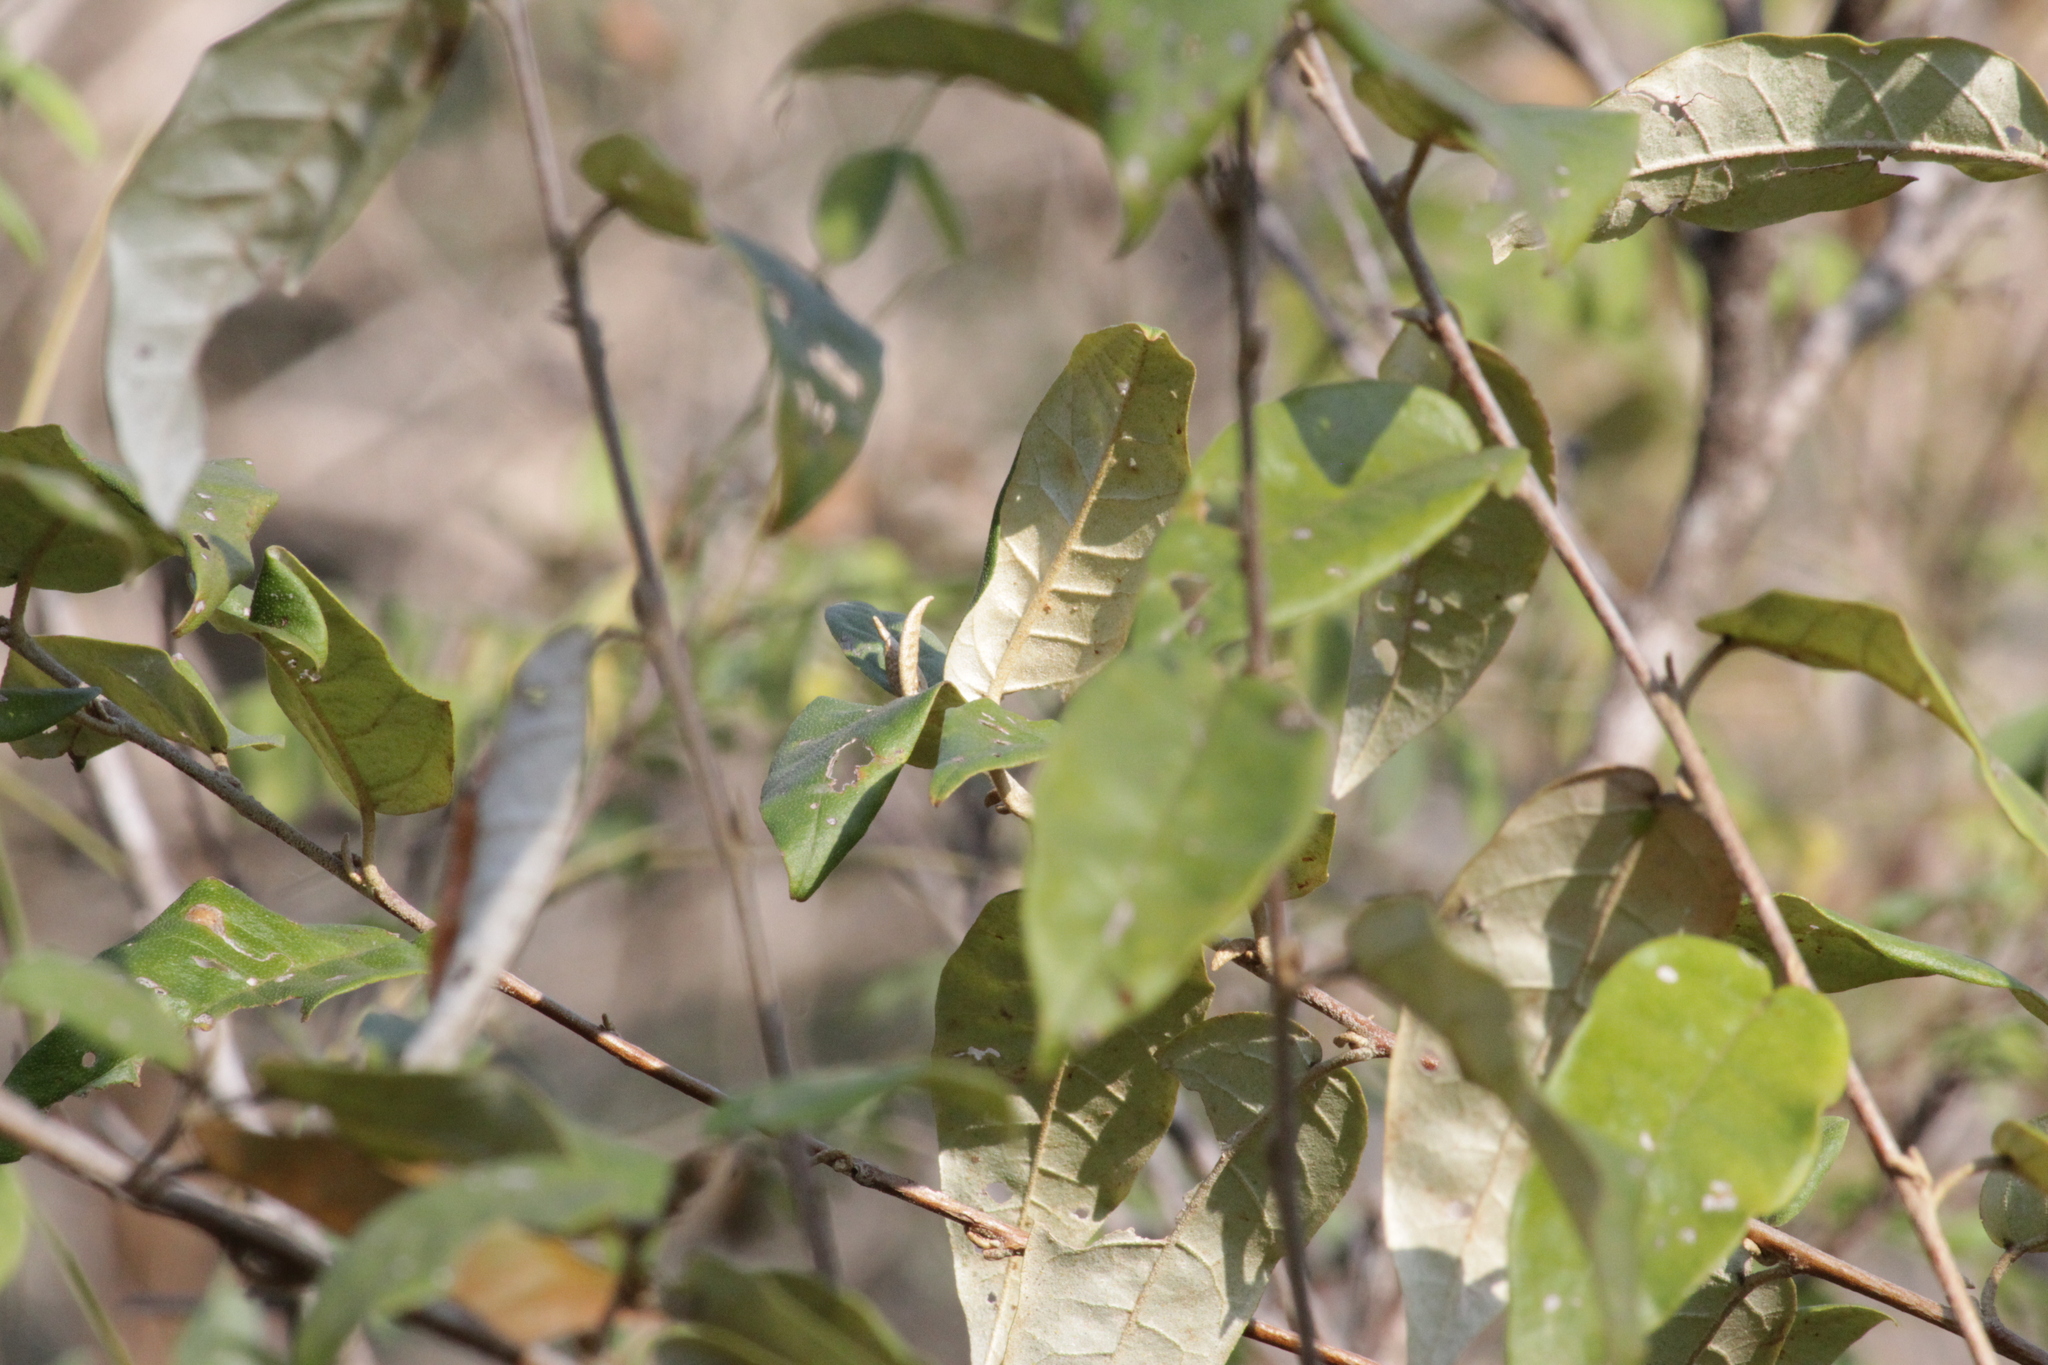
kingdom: Plantae
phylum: Tracheophyta
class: Magnoliopsida
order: Malpighiales
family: Euphorbiaceae
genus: Croton
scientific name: Croton menyharthii
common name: Rough-leaved croton
